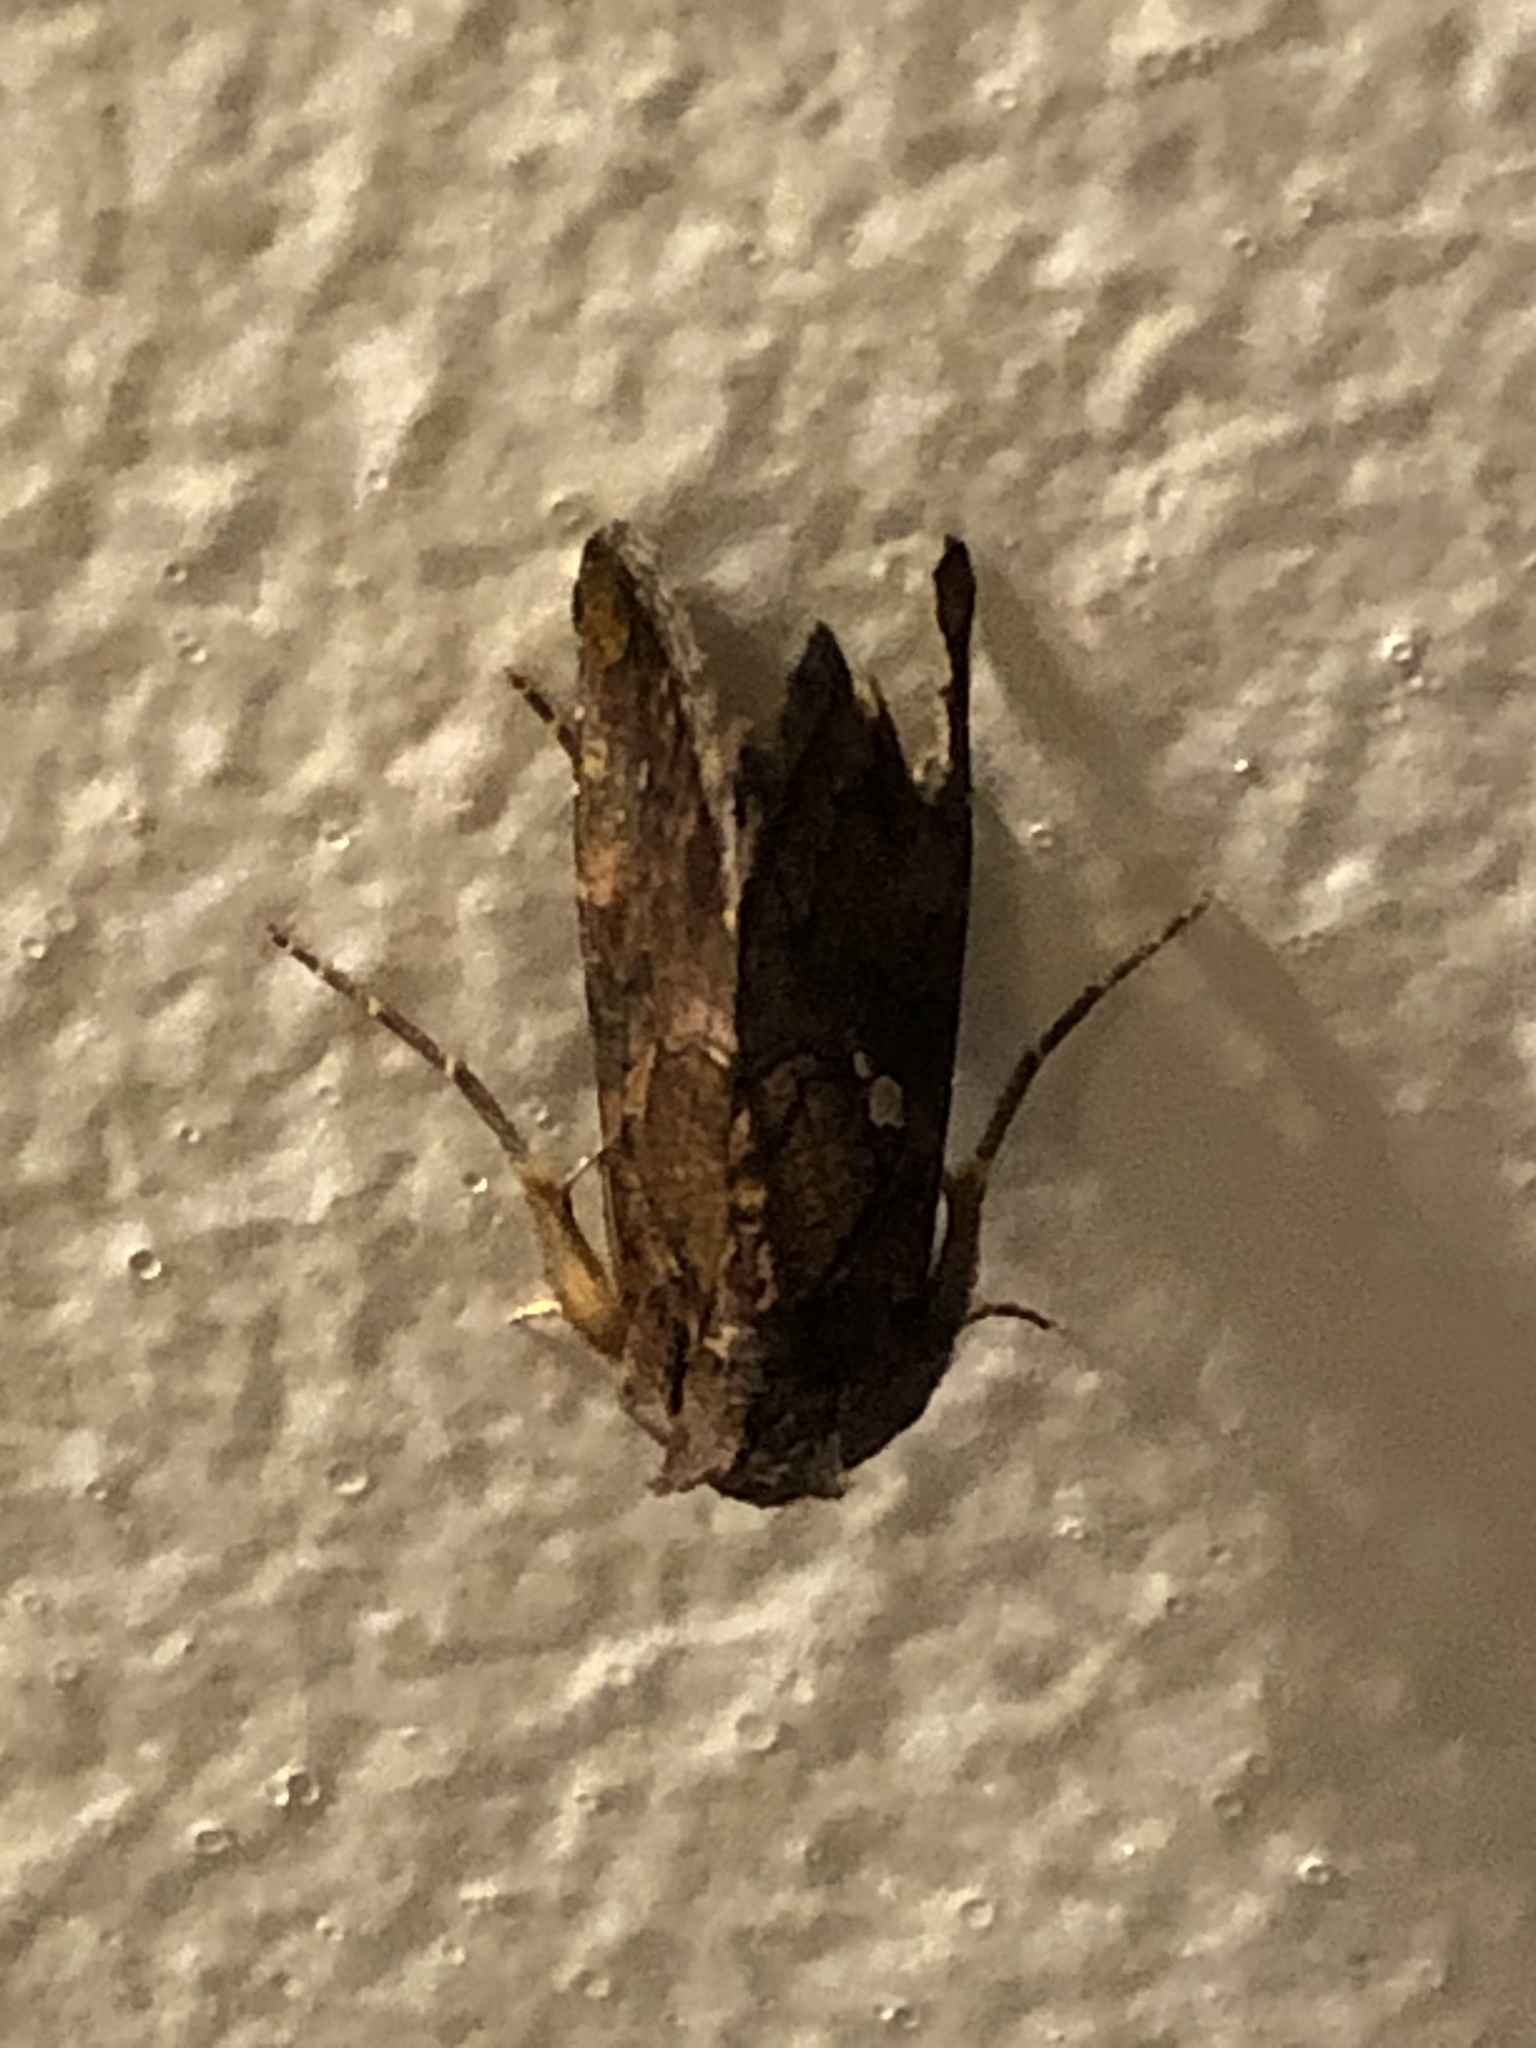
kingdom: Animalia
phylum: Arthropoda
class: Insecta
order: Lepidoptera
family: Noctuidae
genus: Argyrogramma
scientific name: Argyrogramma verruca
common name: Golden looper moth
